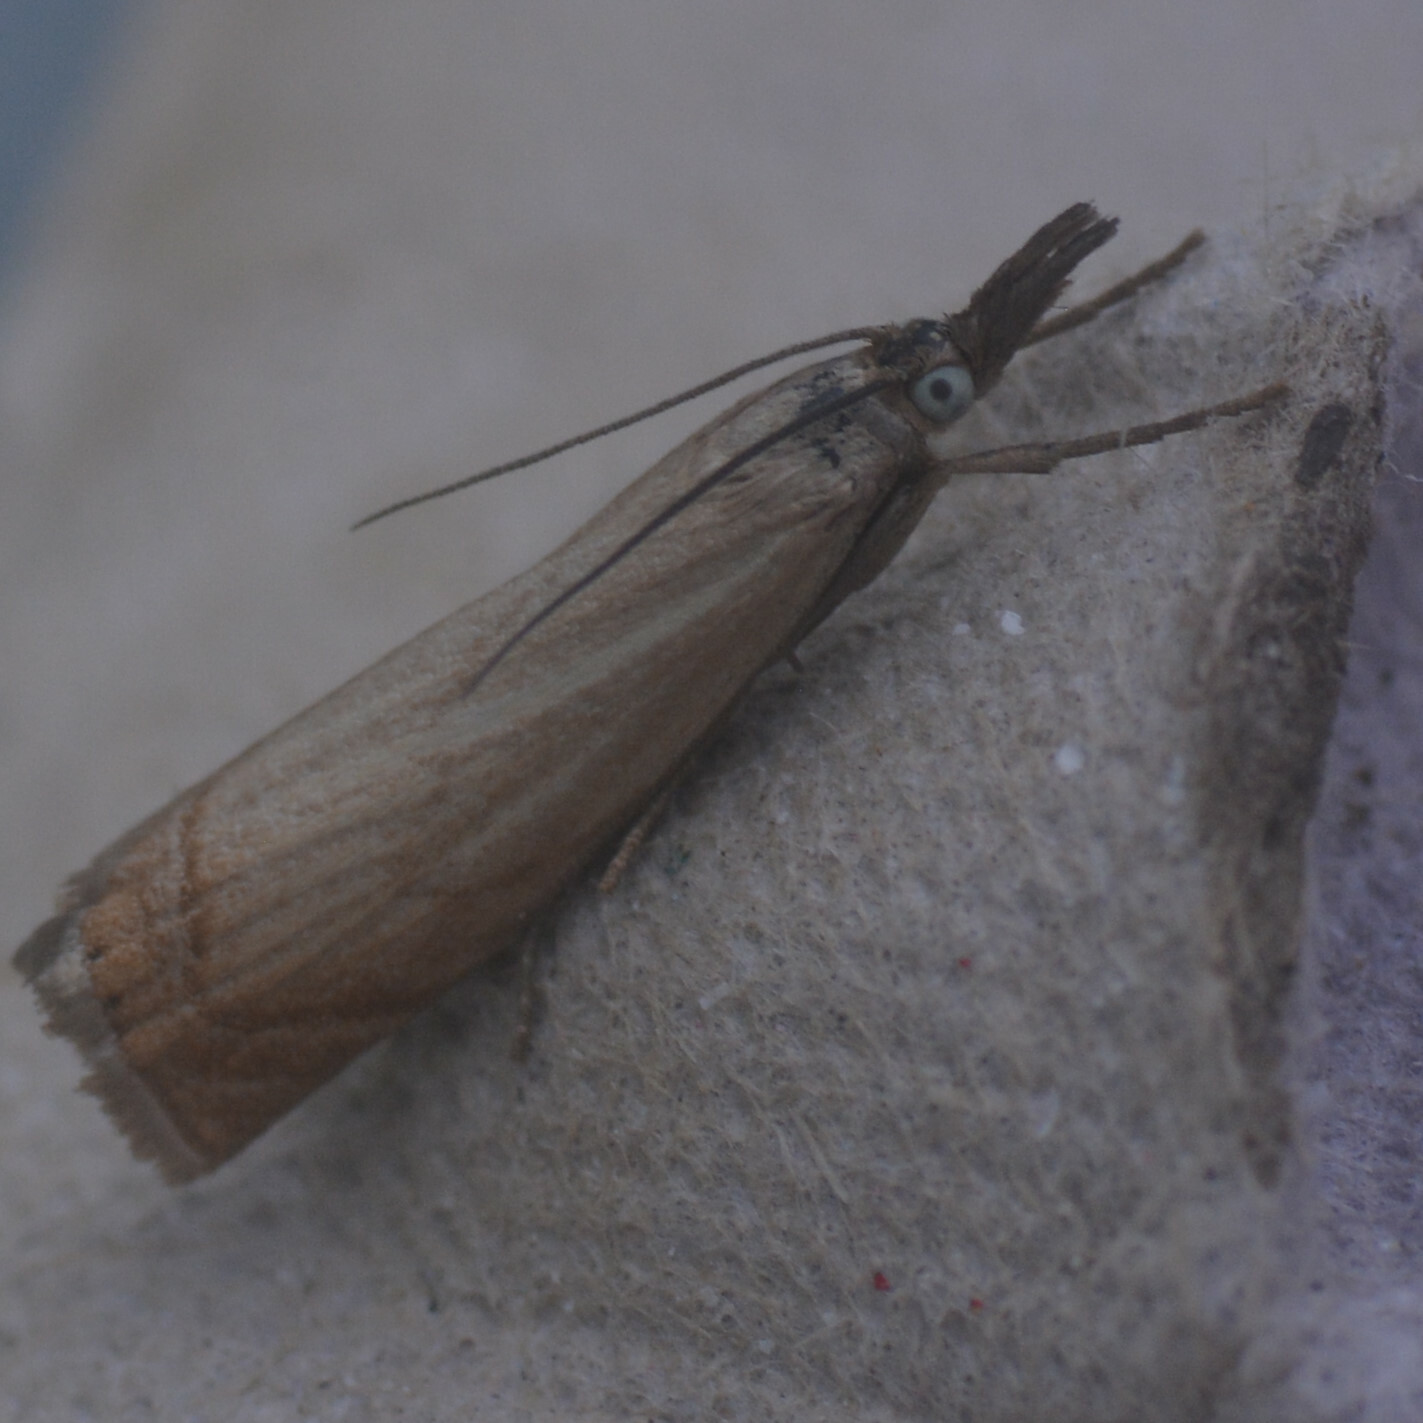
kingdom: Animalia
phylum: Arthropoda
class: Insecta
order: Lepidoptera
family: Crambidae
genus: Chrysoteuchia
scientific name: Chrysoteuchia culmella
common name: Garden grass-veneer
